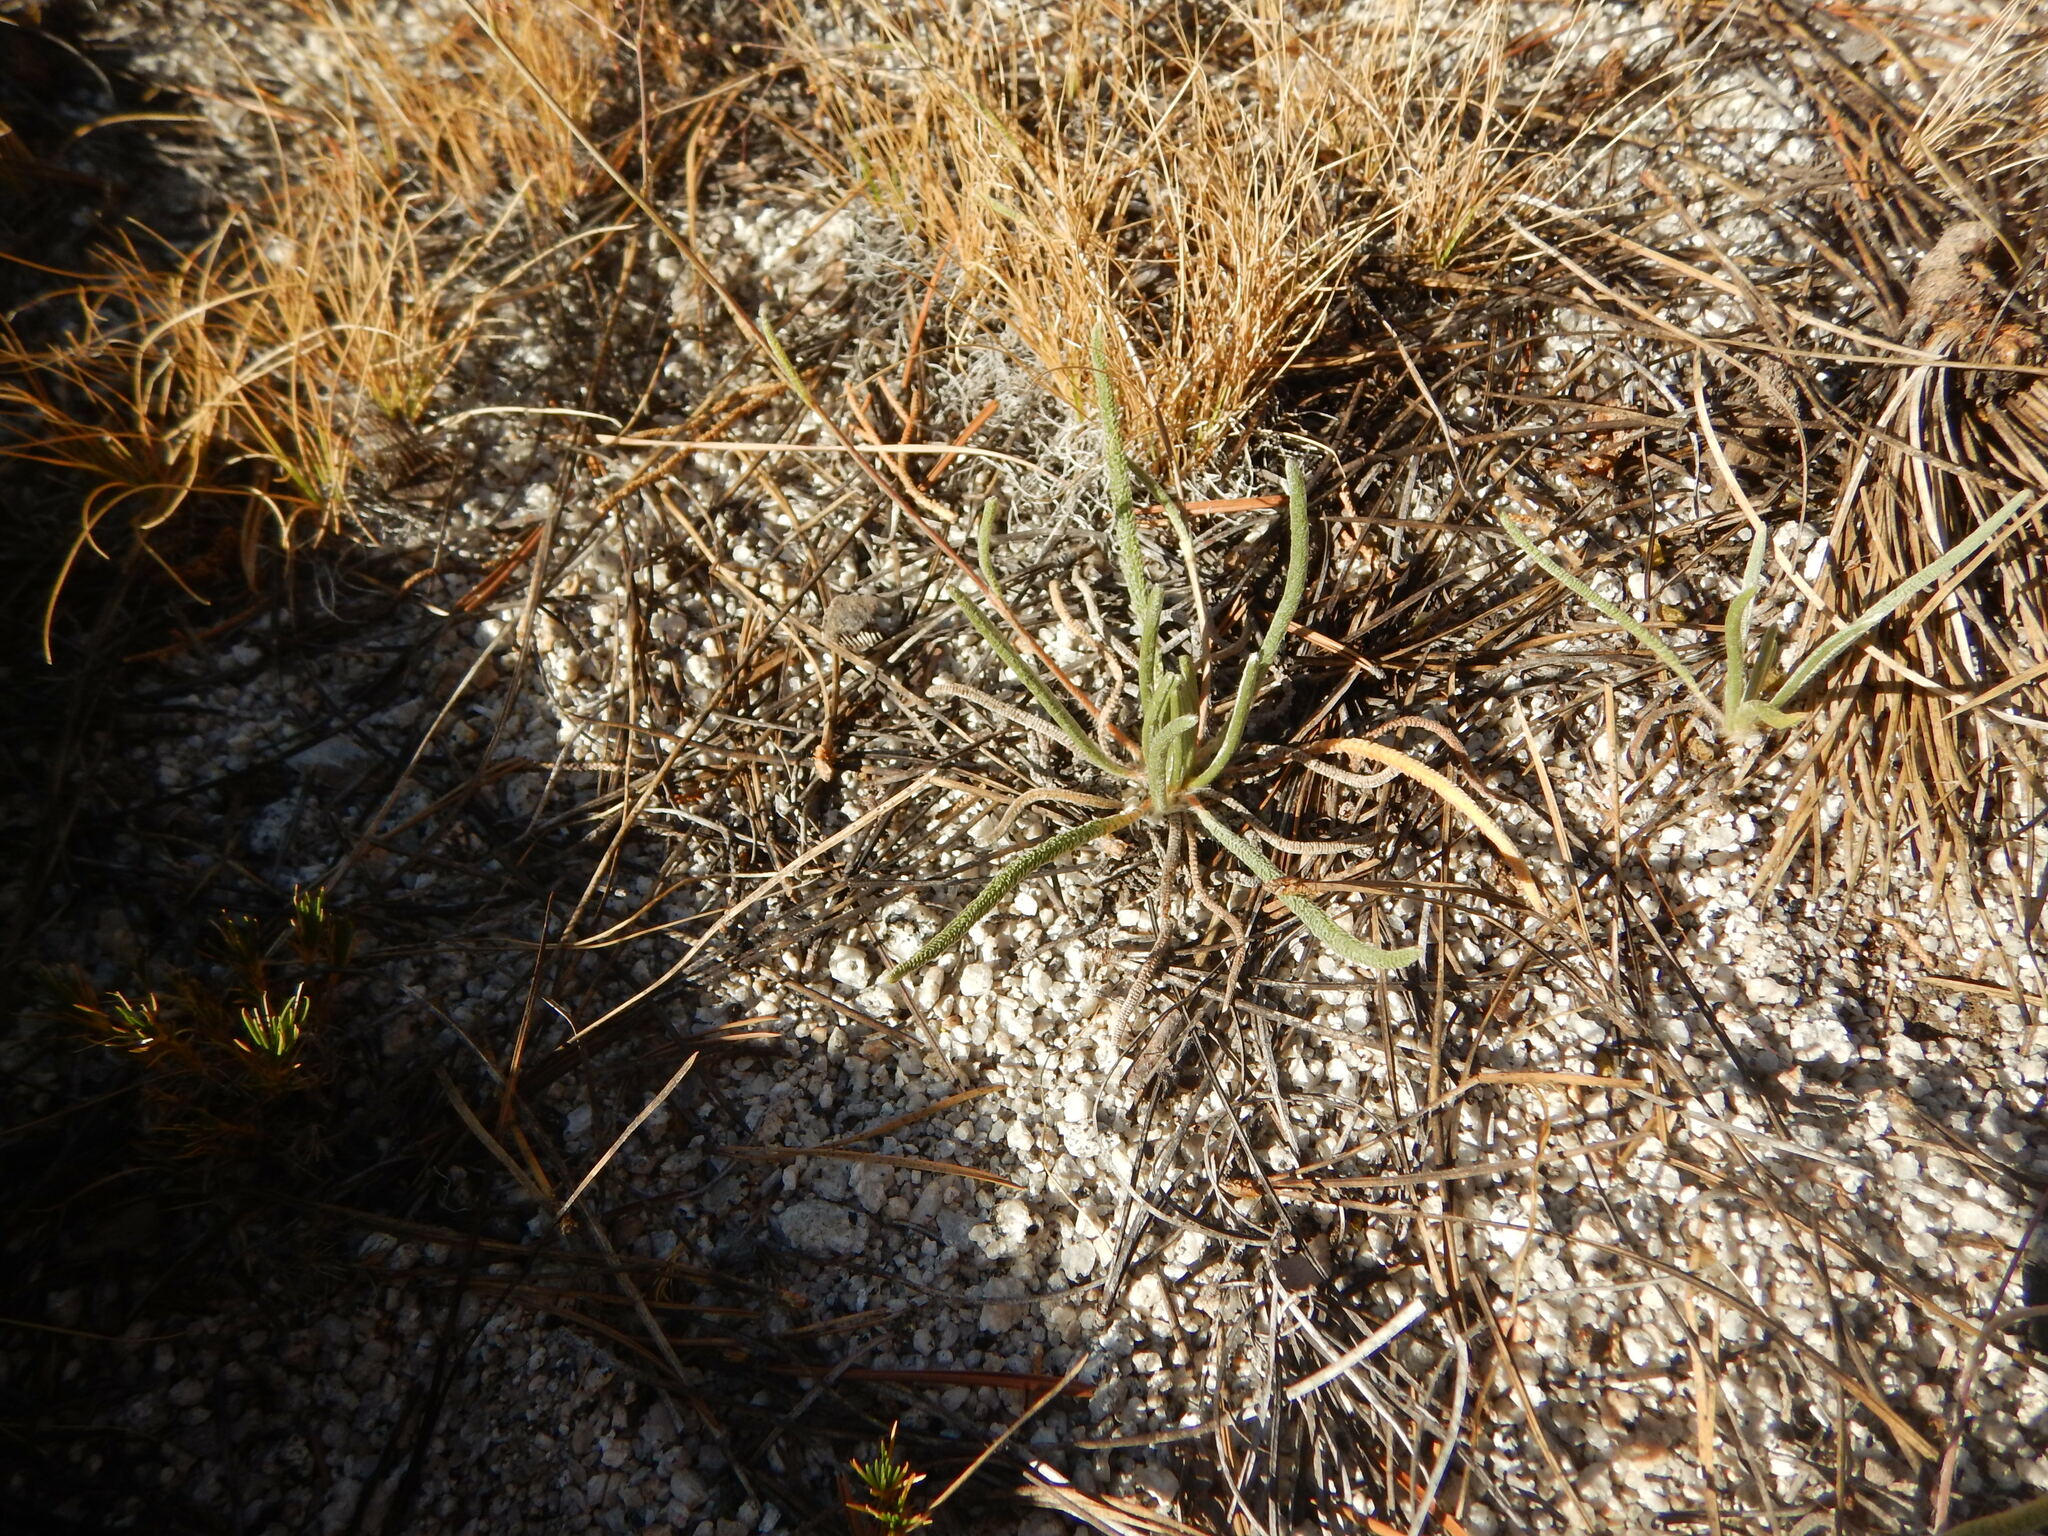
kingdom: Plantae
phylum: Tracheophyta
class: Magnoliopsida
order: Rosales
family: Rosaceae
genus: Potentilla
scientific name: Potentilla santolinoides
